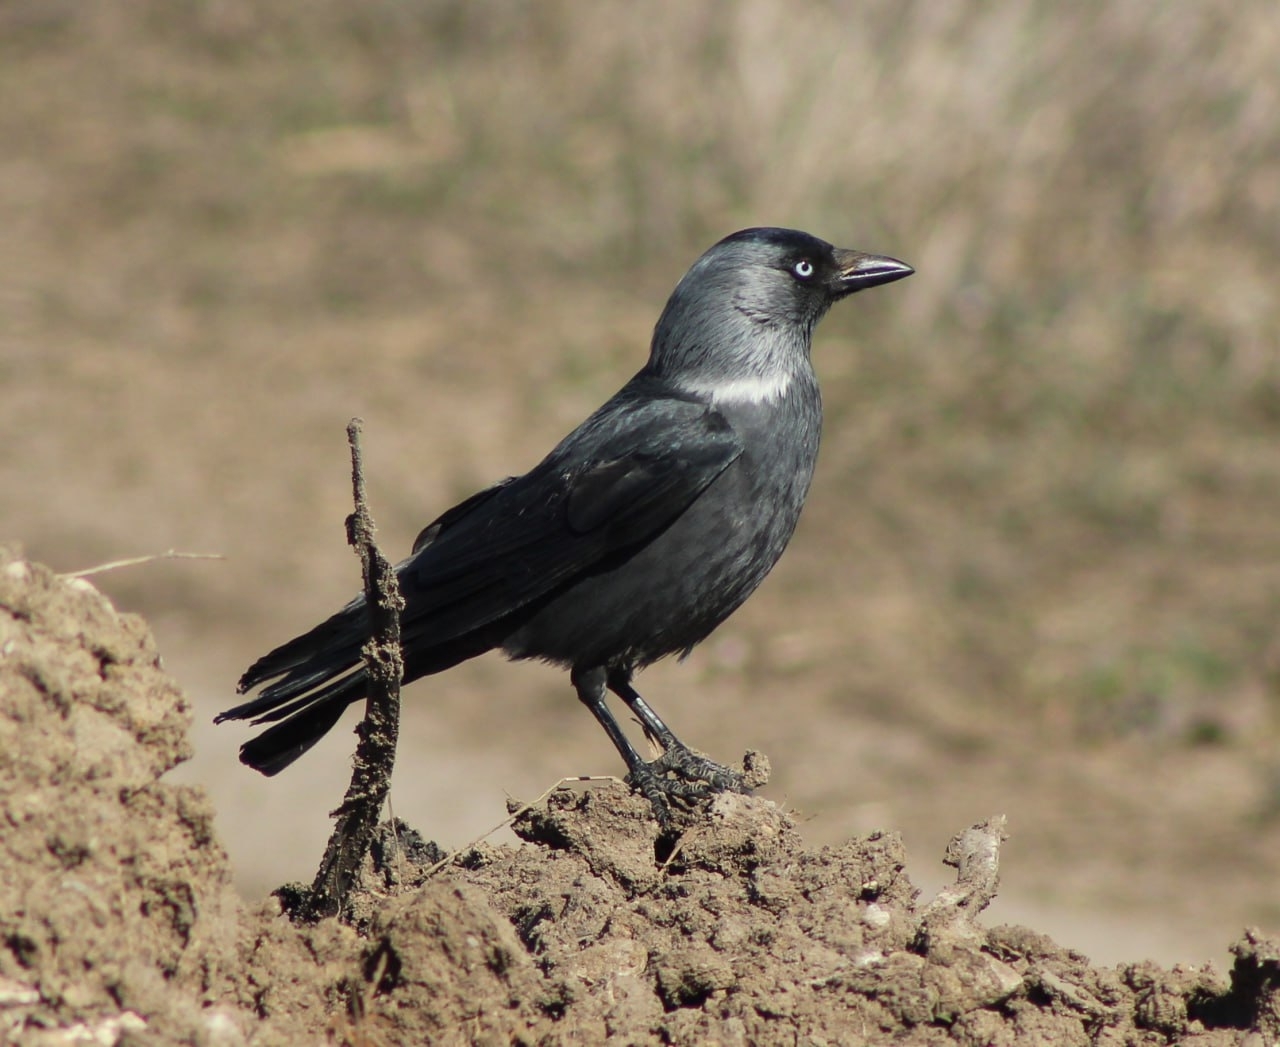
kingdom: Animalia
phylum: Chordata
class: Aves
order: Passeriformes
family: Corvidae
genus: Coloeus
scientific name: Coloeus monedula
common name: Western jackdaw
